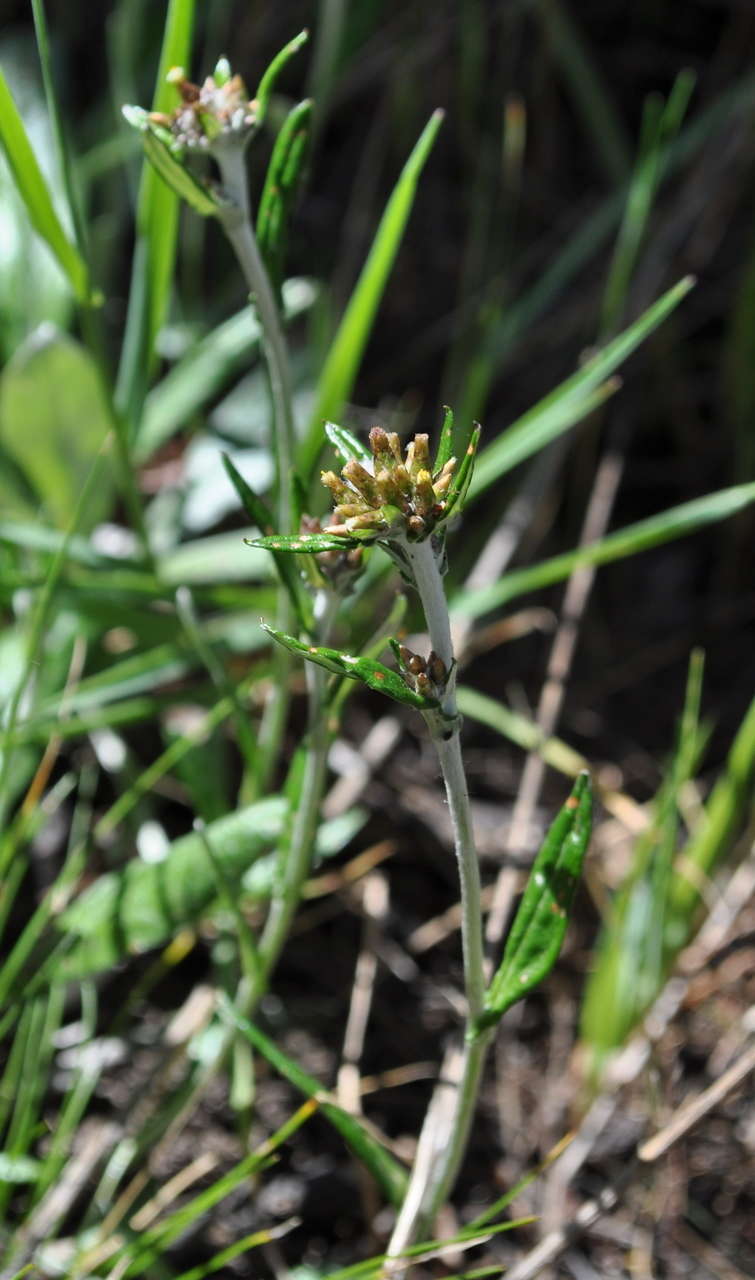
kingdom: Plantae
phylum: Tracheophyta
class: Magnoliopsida
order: Asterales
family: Asteraceae
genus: Euchiton
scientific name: Euchiton japonicus
